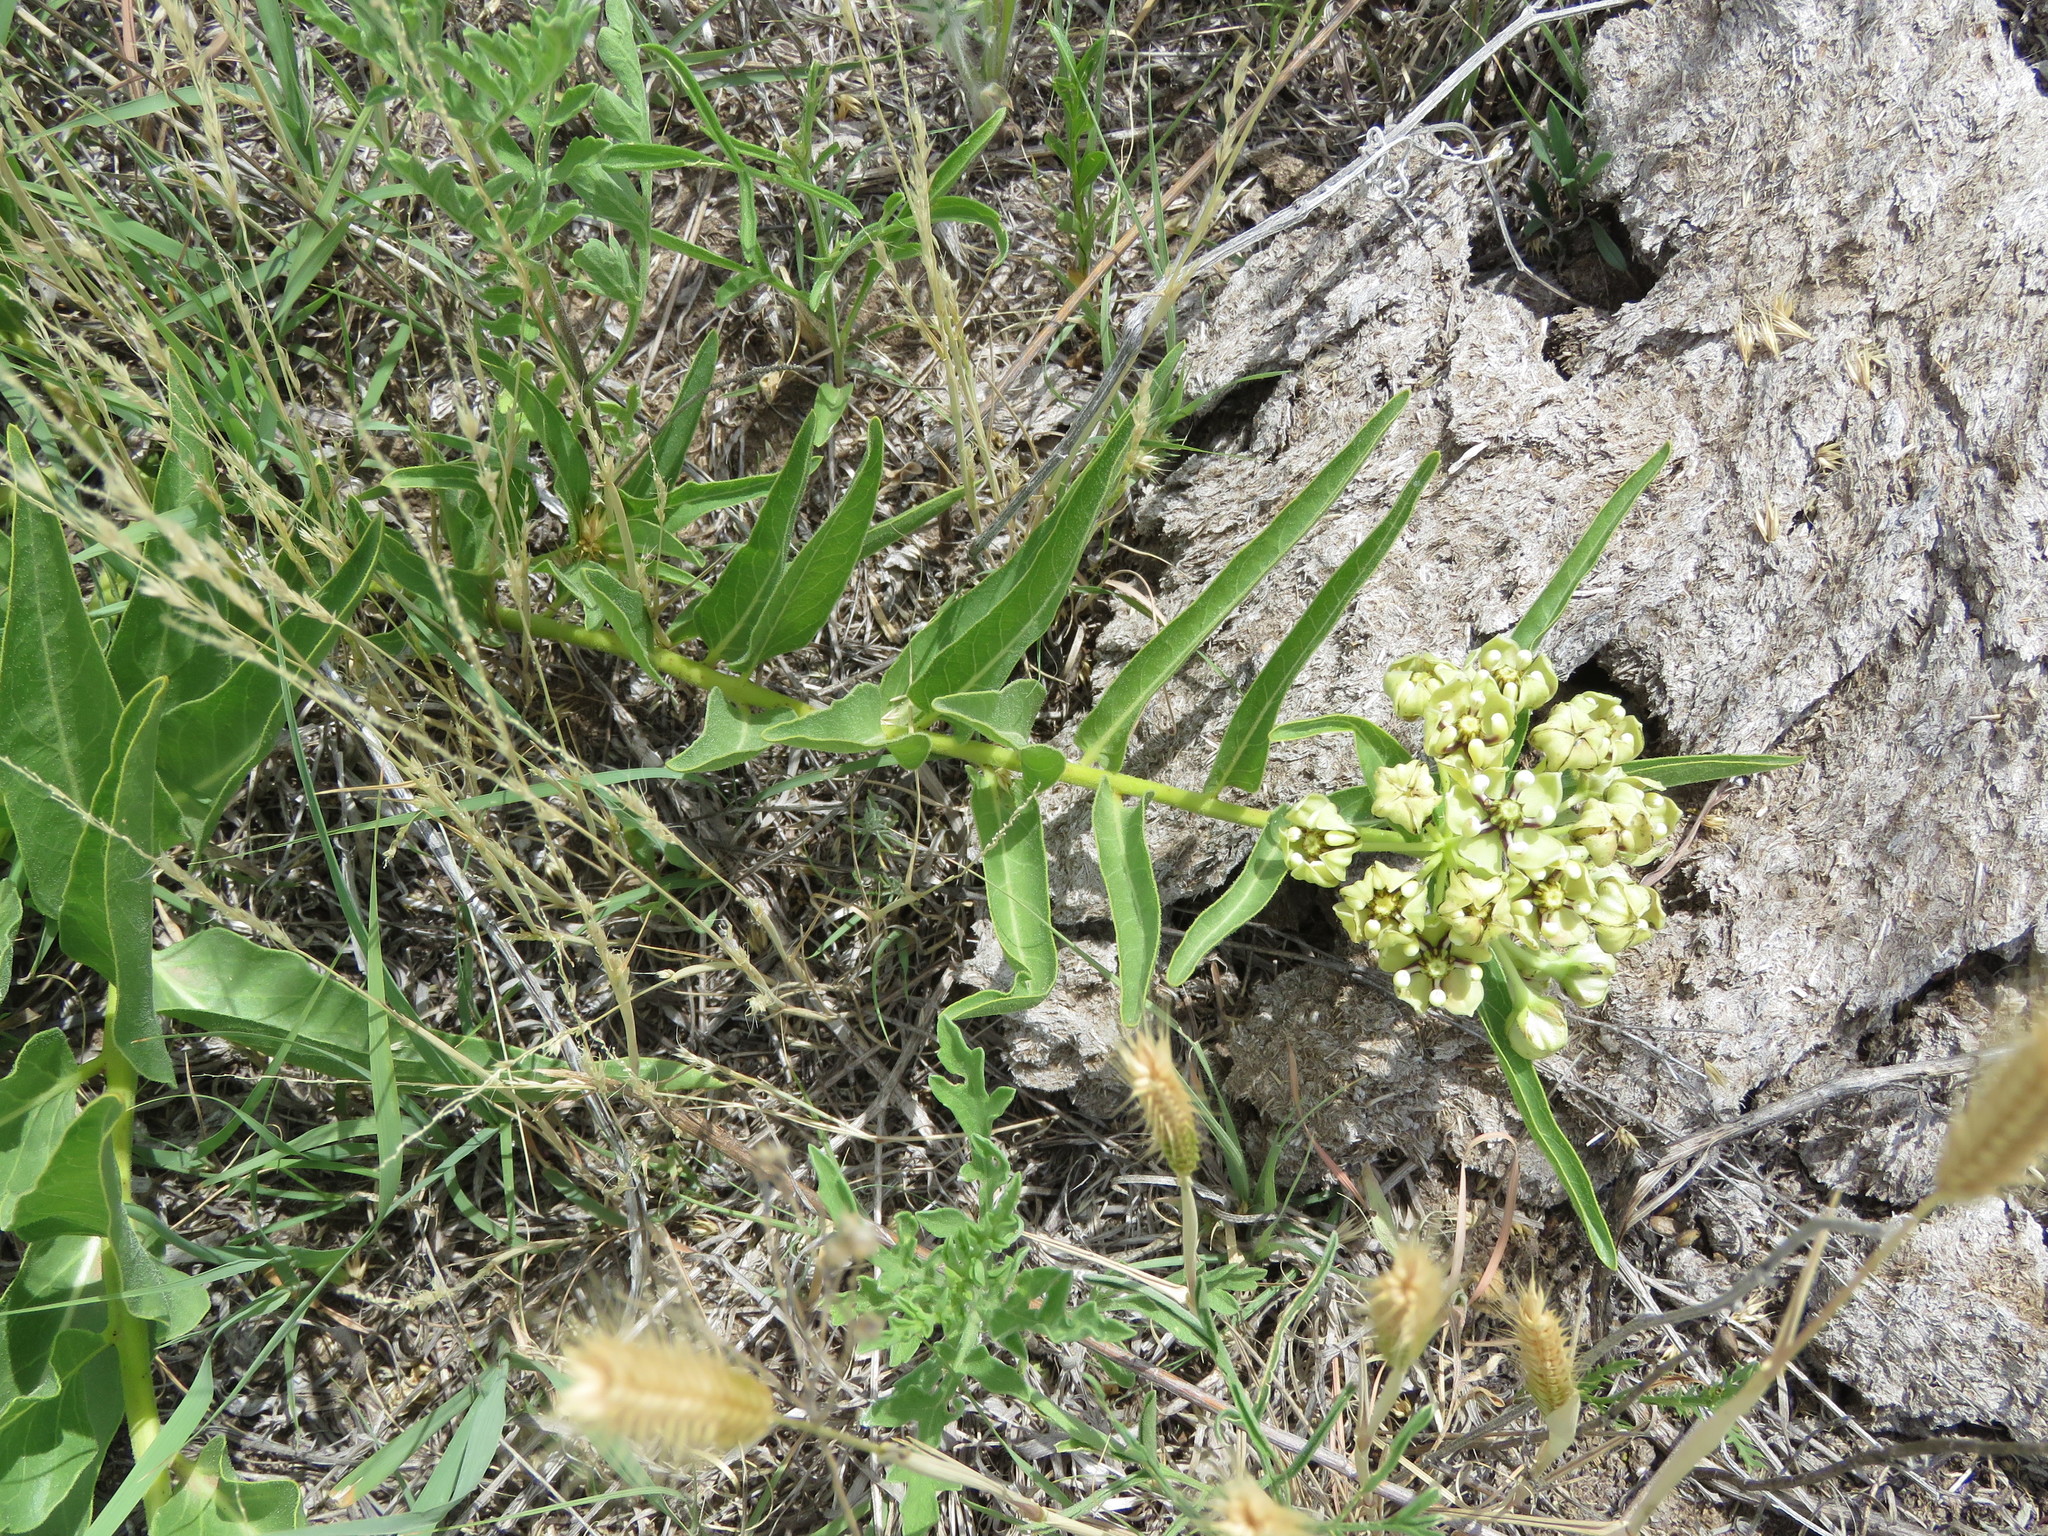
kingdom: Plantae
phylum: Tracheophyta
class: Magnoliopsida
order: Gentianales
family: Apocynaceae
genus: Asclepias
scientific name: Asclepias asperula
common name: Antelope horns
